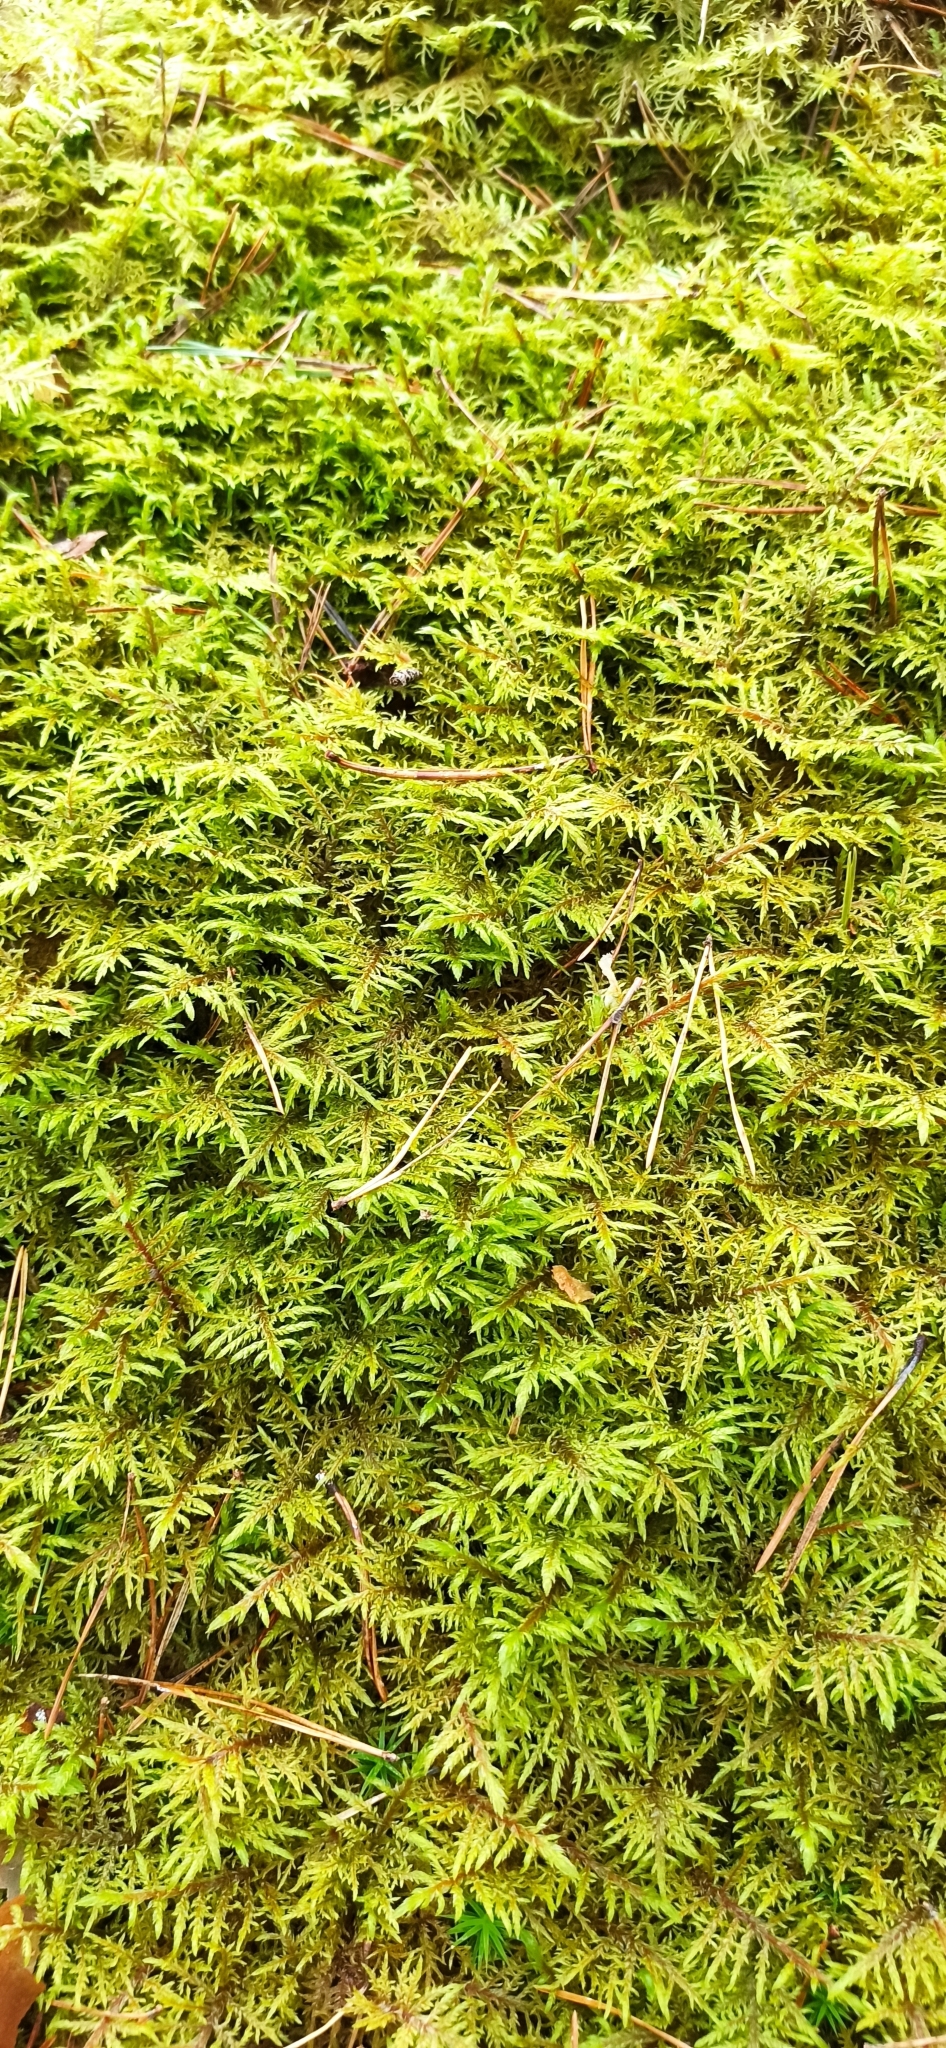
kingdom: Plantae
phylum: Bryophyta
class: Bryopsida
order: Hypnales
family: Hylocomiaceae
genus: Hylocomium
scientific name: Hylocomium splendens
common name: Stairstep moss
